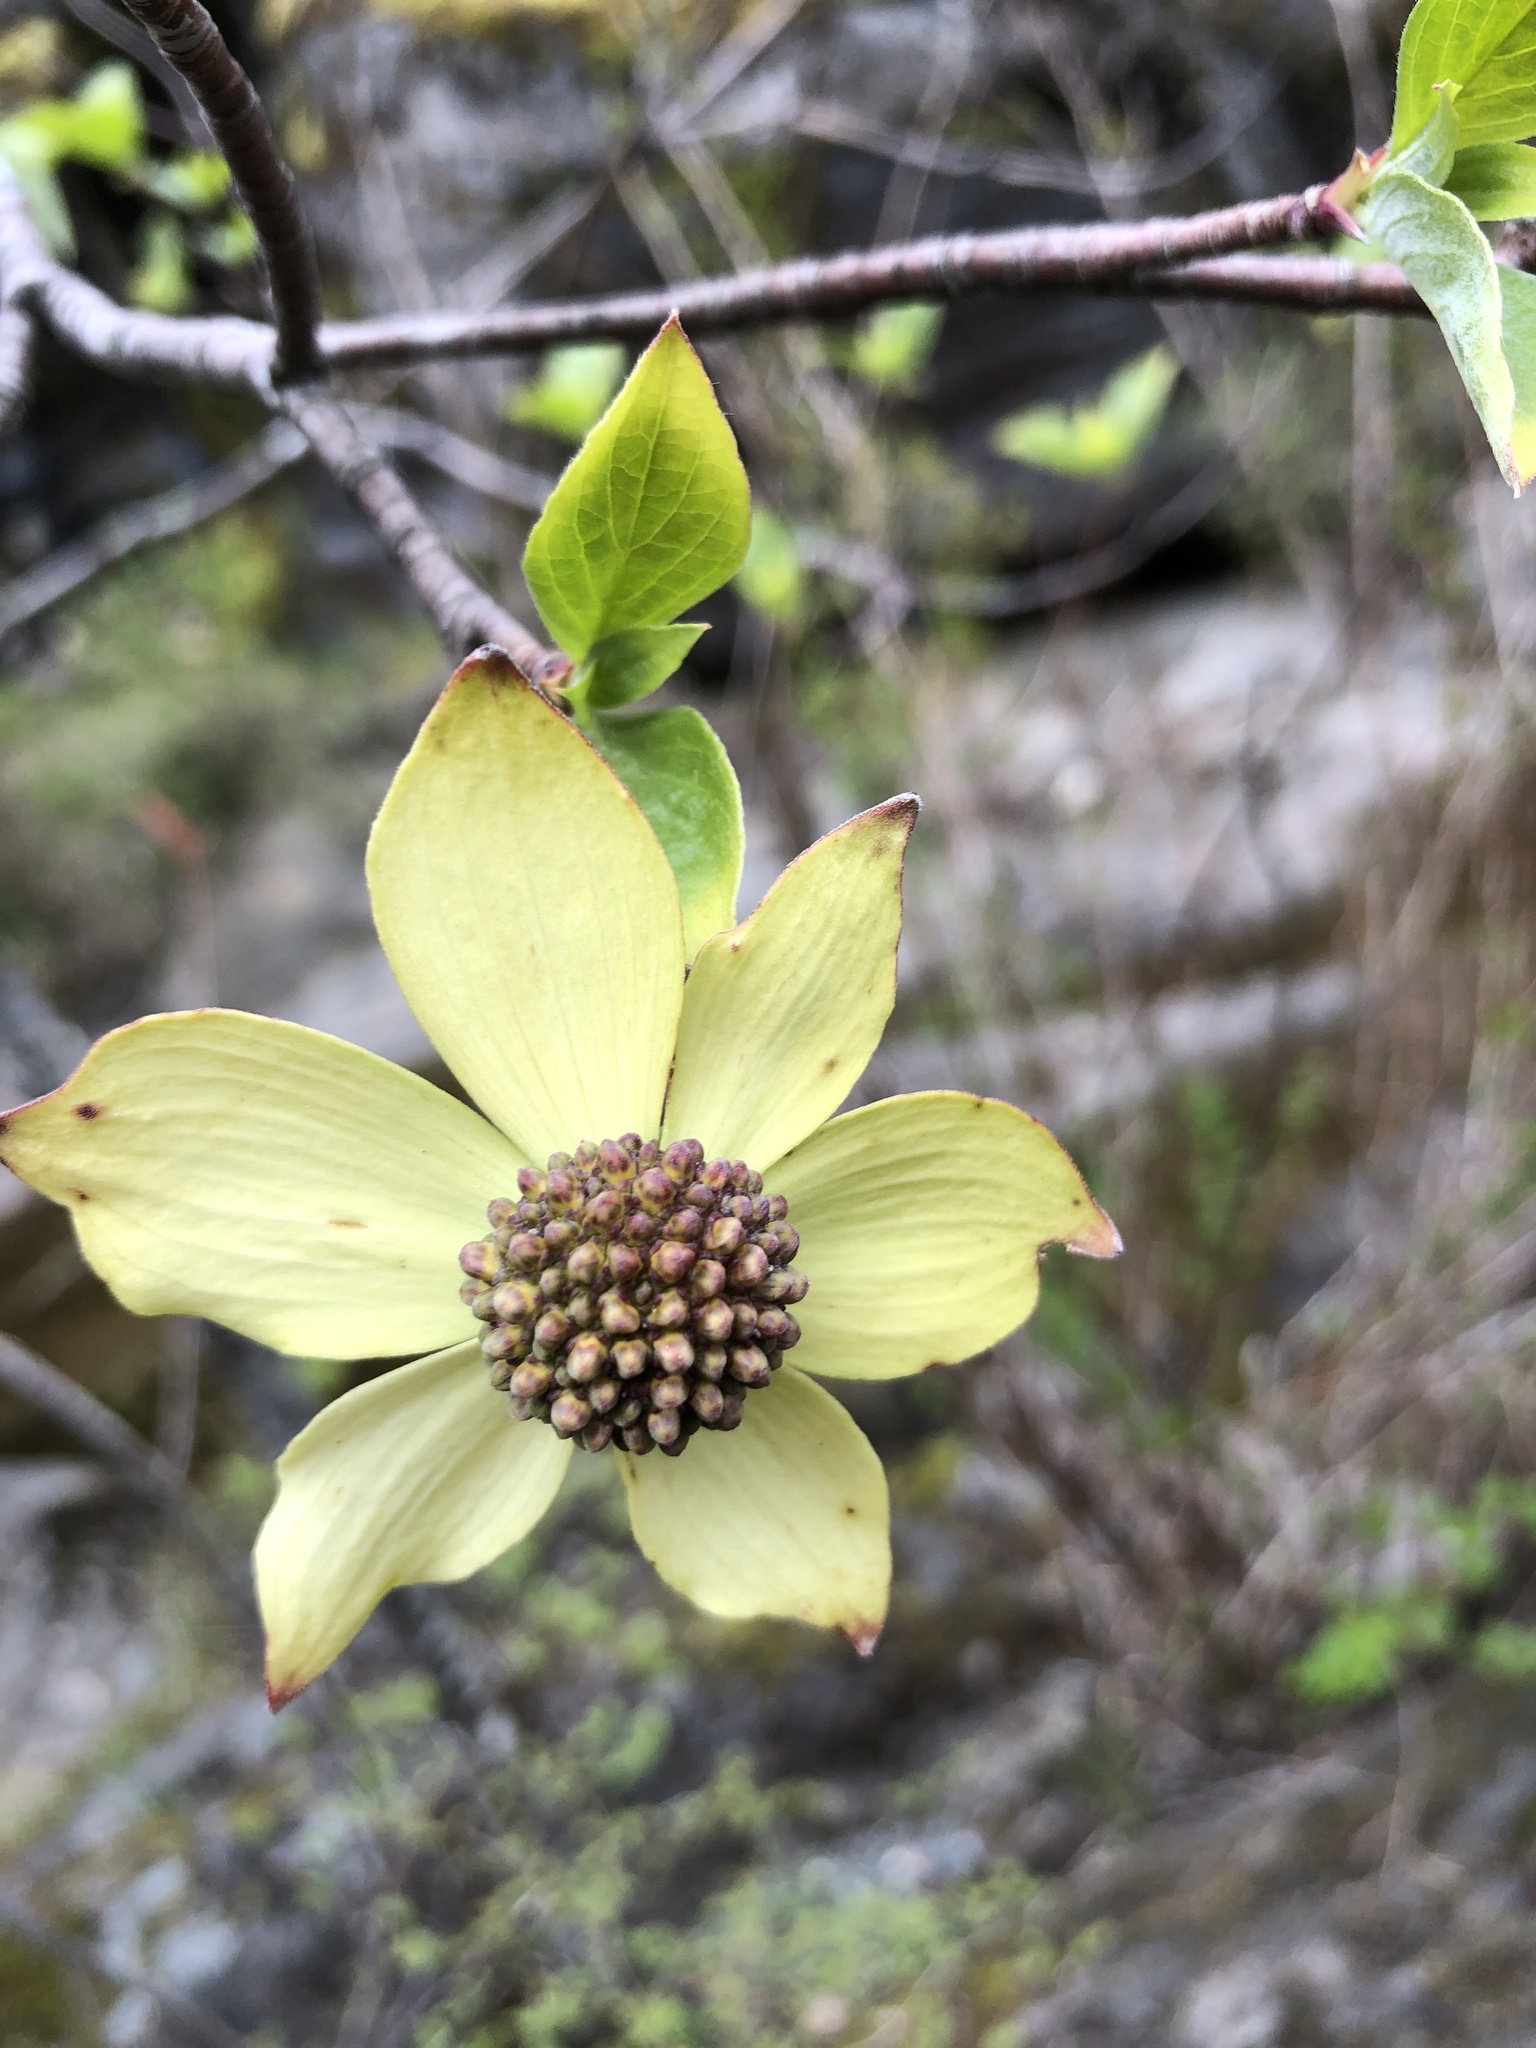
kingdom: Plantae
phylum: Tracheophyta
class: Magnoliopsida
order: Cornales
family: Cornaceae
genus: Cornus
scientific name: Cornus nuttallii
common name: Pacific dogwood
